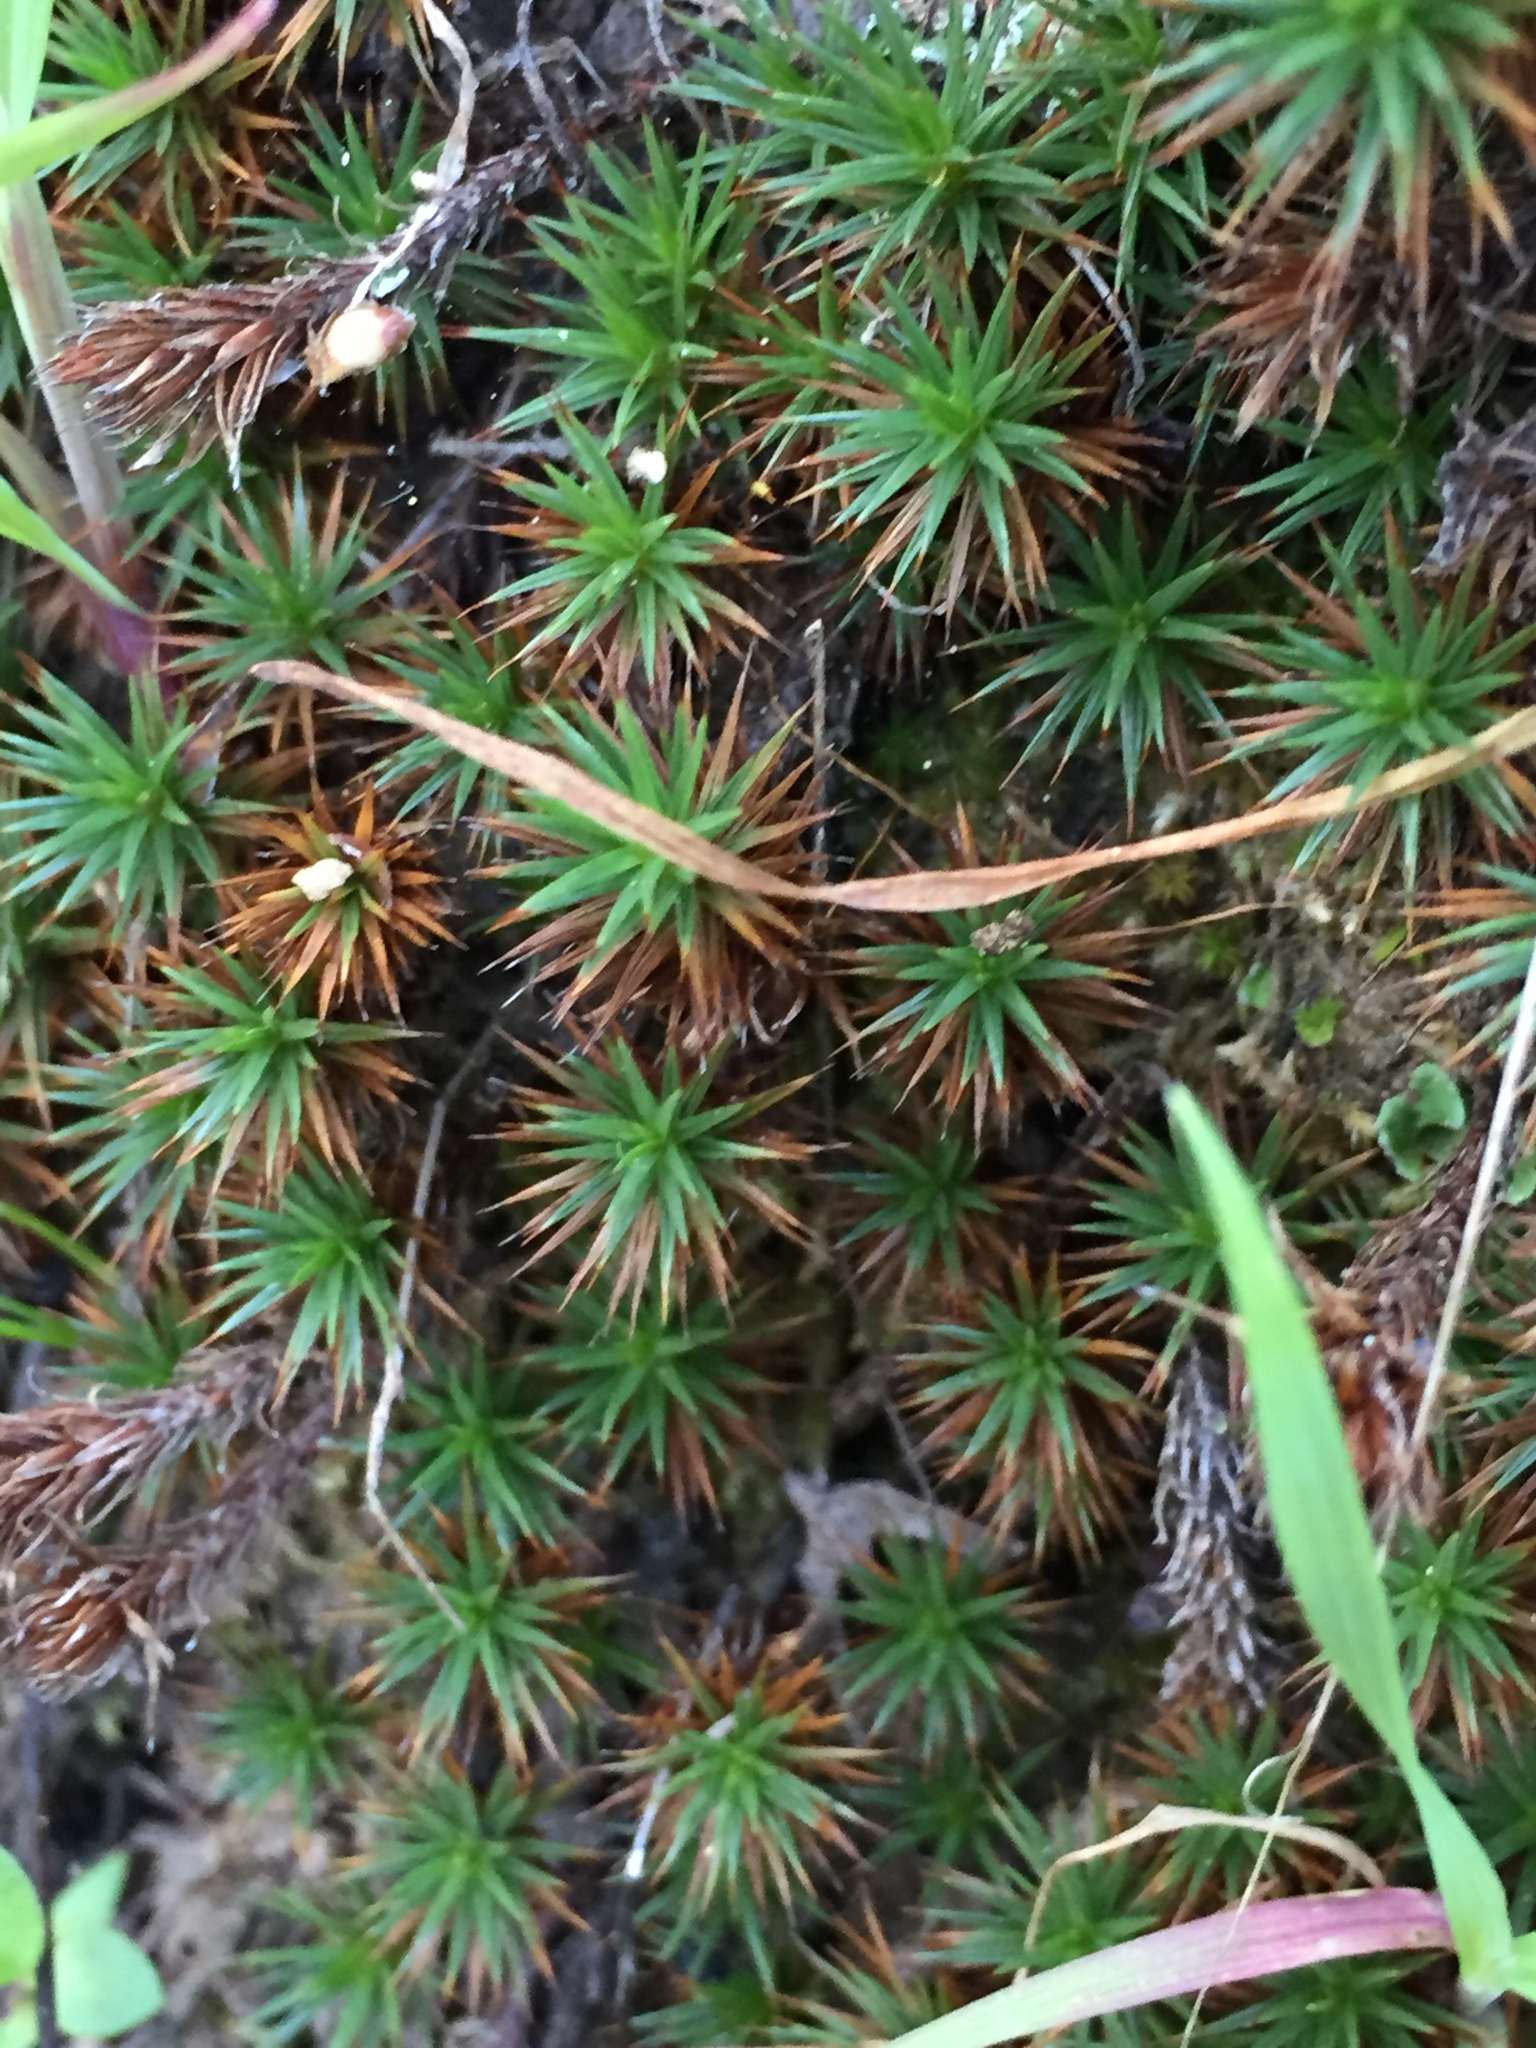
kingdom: Plantae
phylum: Bryophyta
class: Polytrichopsida
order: Polytrichales
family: Polytrichaceae
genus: Polytrichum
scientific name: Polytrichum juniperinum
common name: Juniper haircap moss
